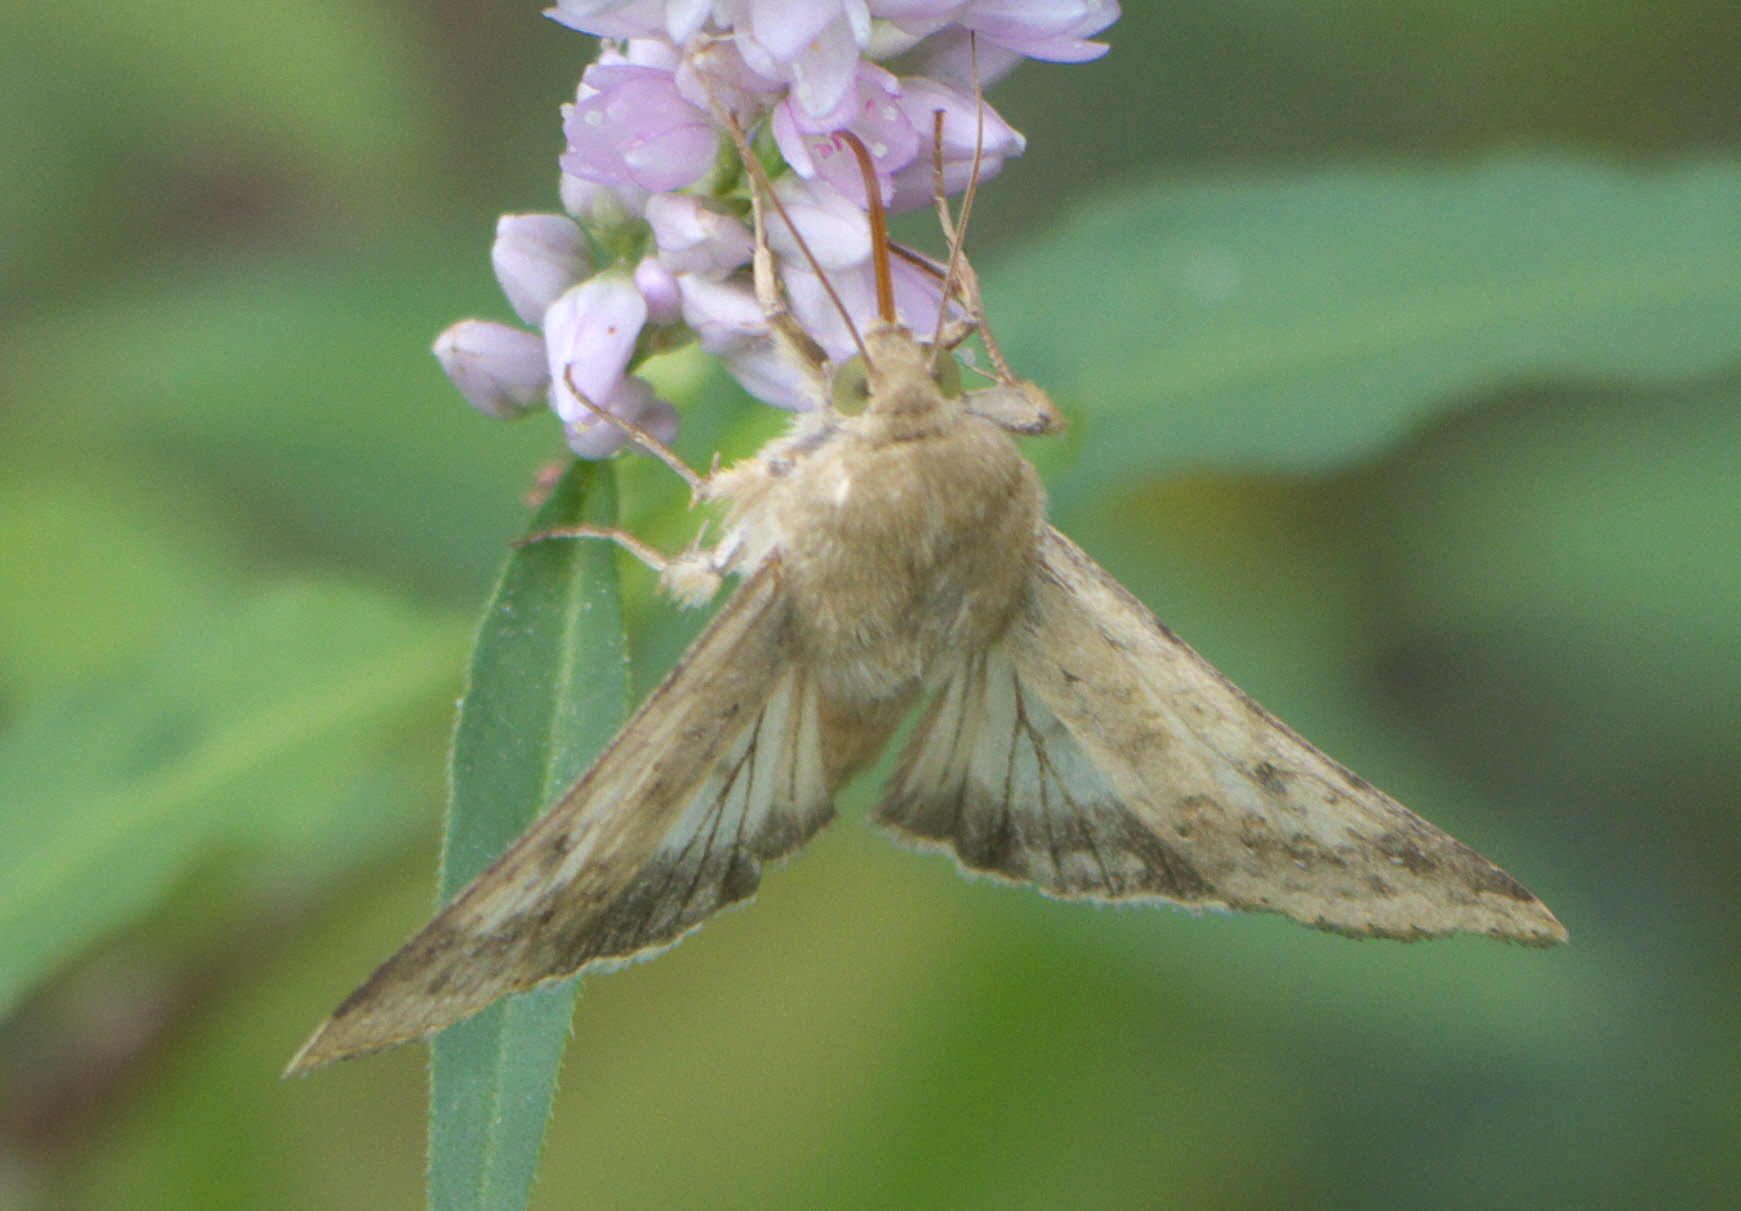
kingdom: Animalia
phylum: Arthropoda
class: Insecta
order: Lepidoptera
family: Noctuidae
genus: Helicoverpa
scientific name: Helicoverpa zea
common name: Bollworm
